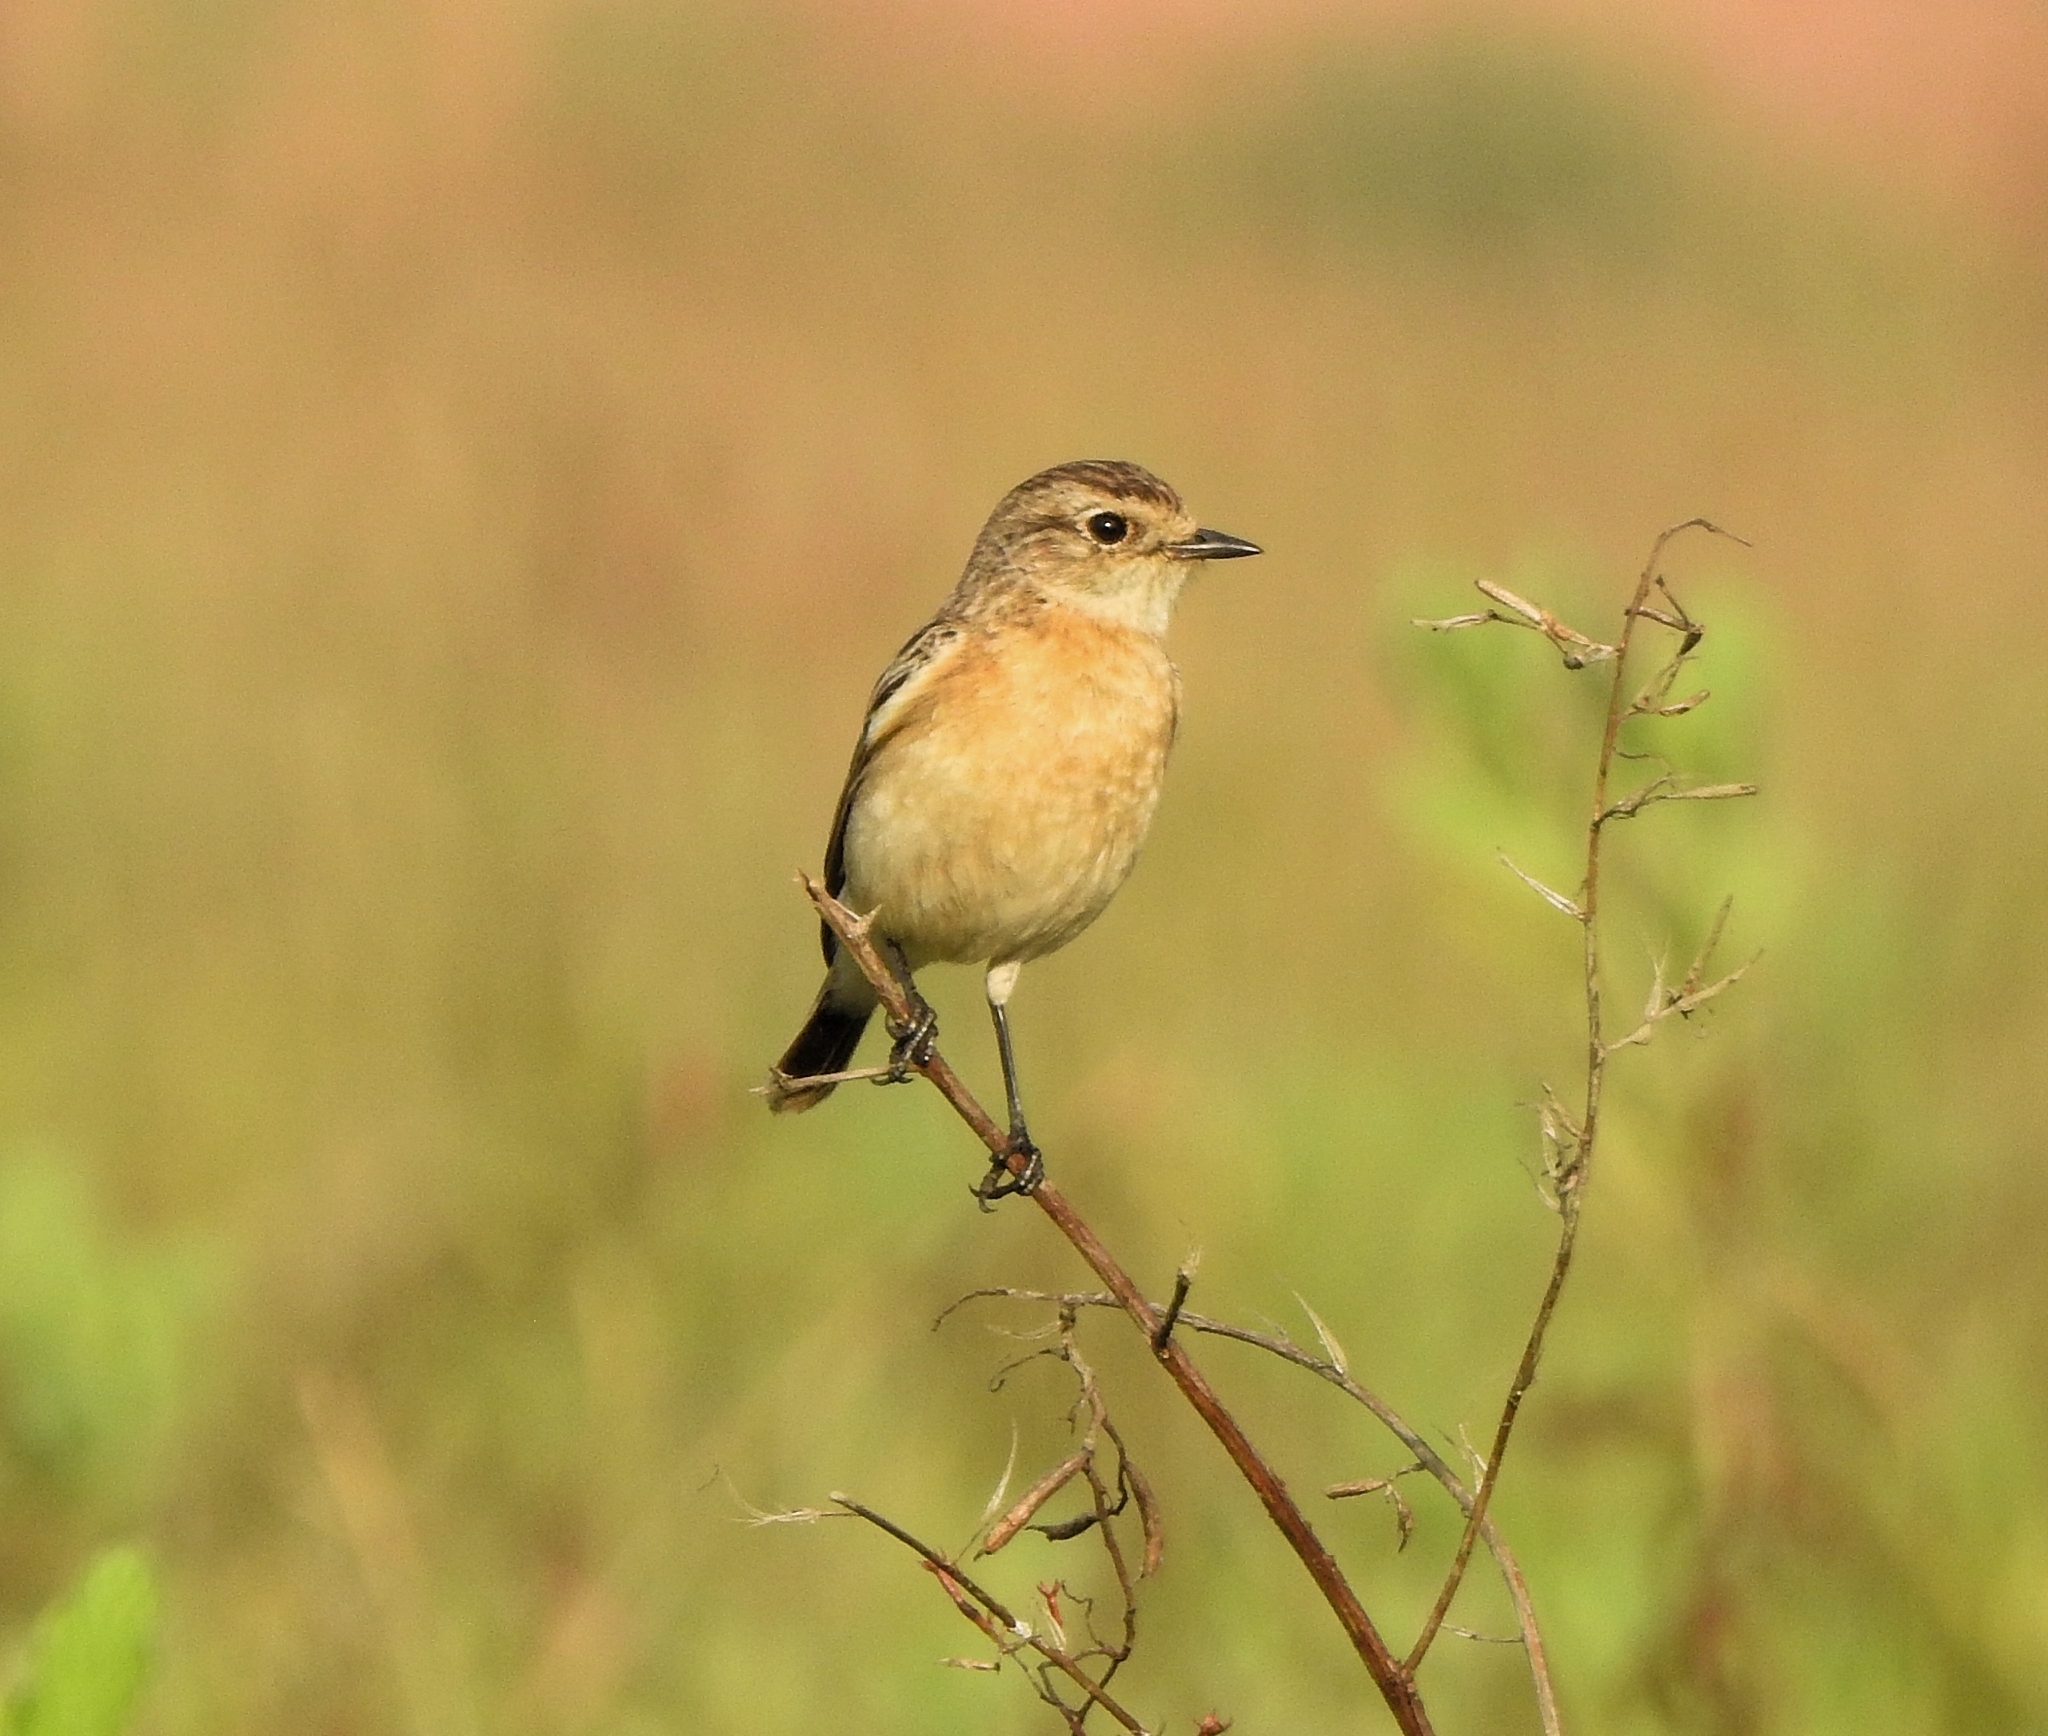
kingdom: Animalia
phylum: Chordata
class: Aves
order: Passeriformes
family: Muscicapidae
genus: Saxicola
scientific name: Saxicola maurus
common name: Siberian stonechat
